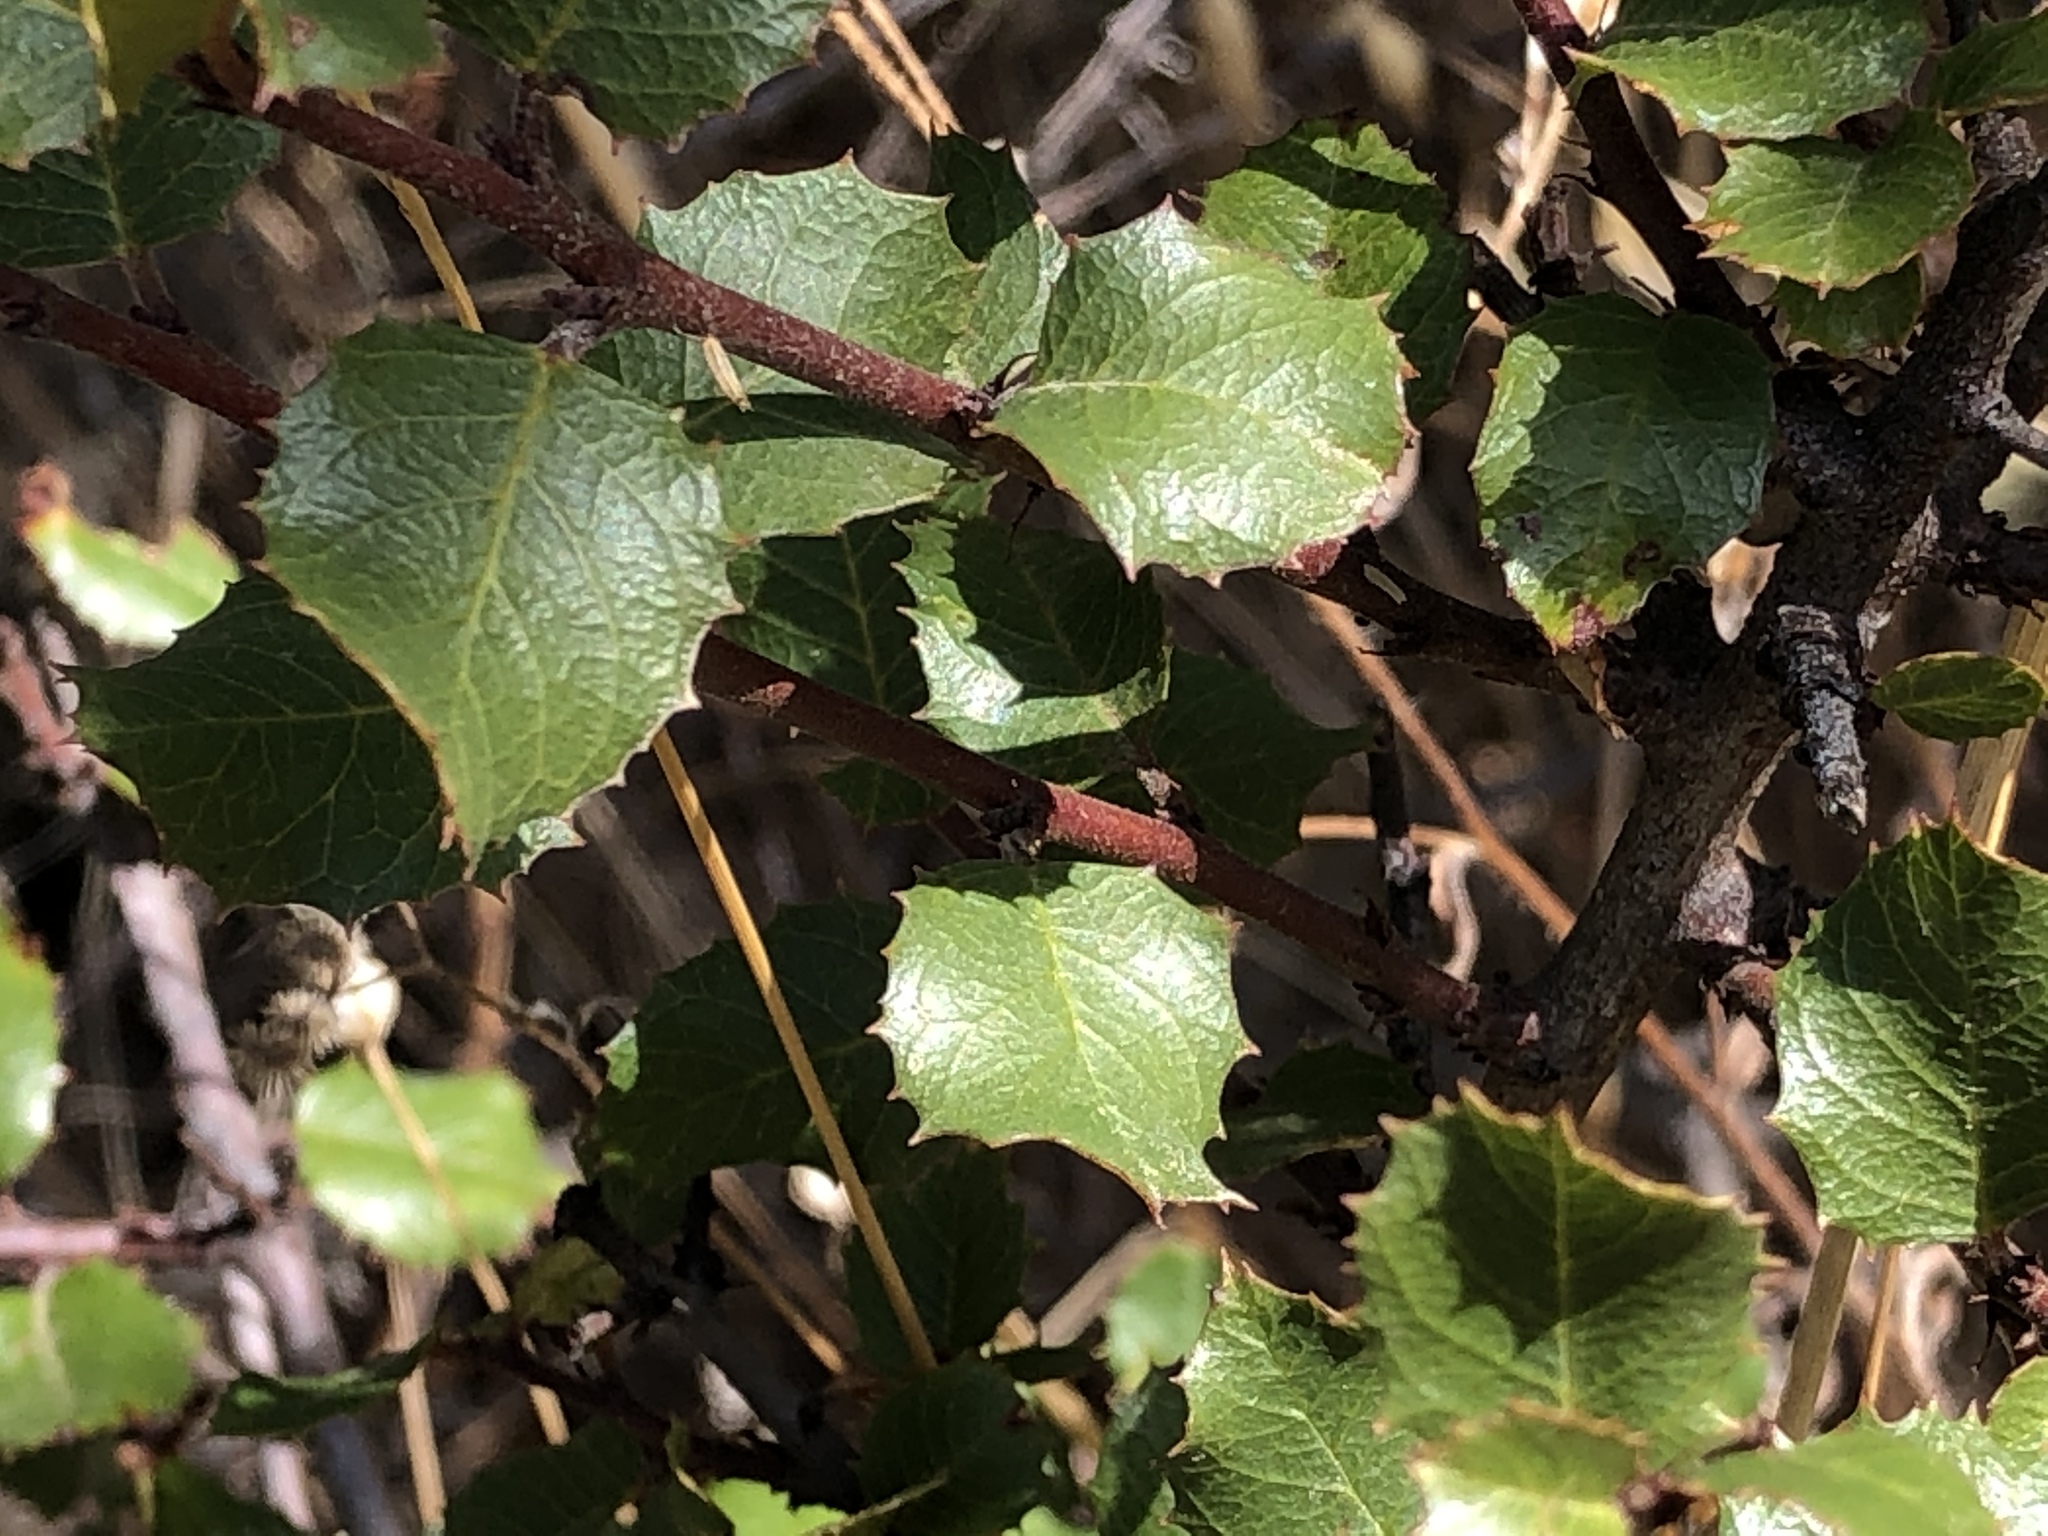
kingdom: Plantae
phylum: Tracheophyta
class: Magnoliopsida
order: Rosales
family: Rhamnaceae
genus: Endotropis
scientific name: Endotropis crocea
